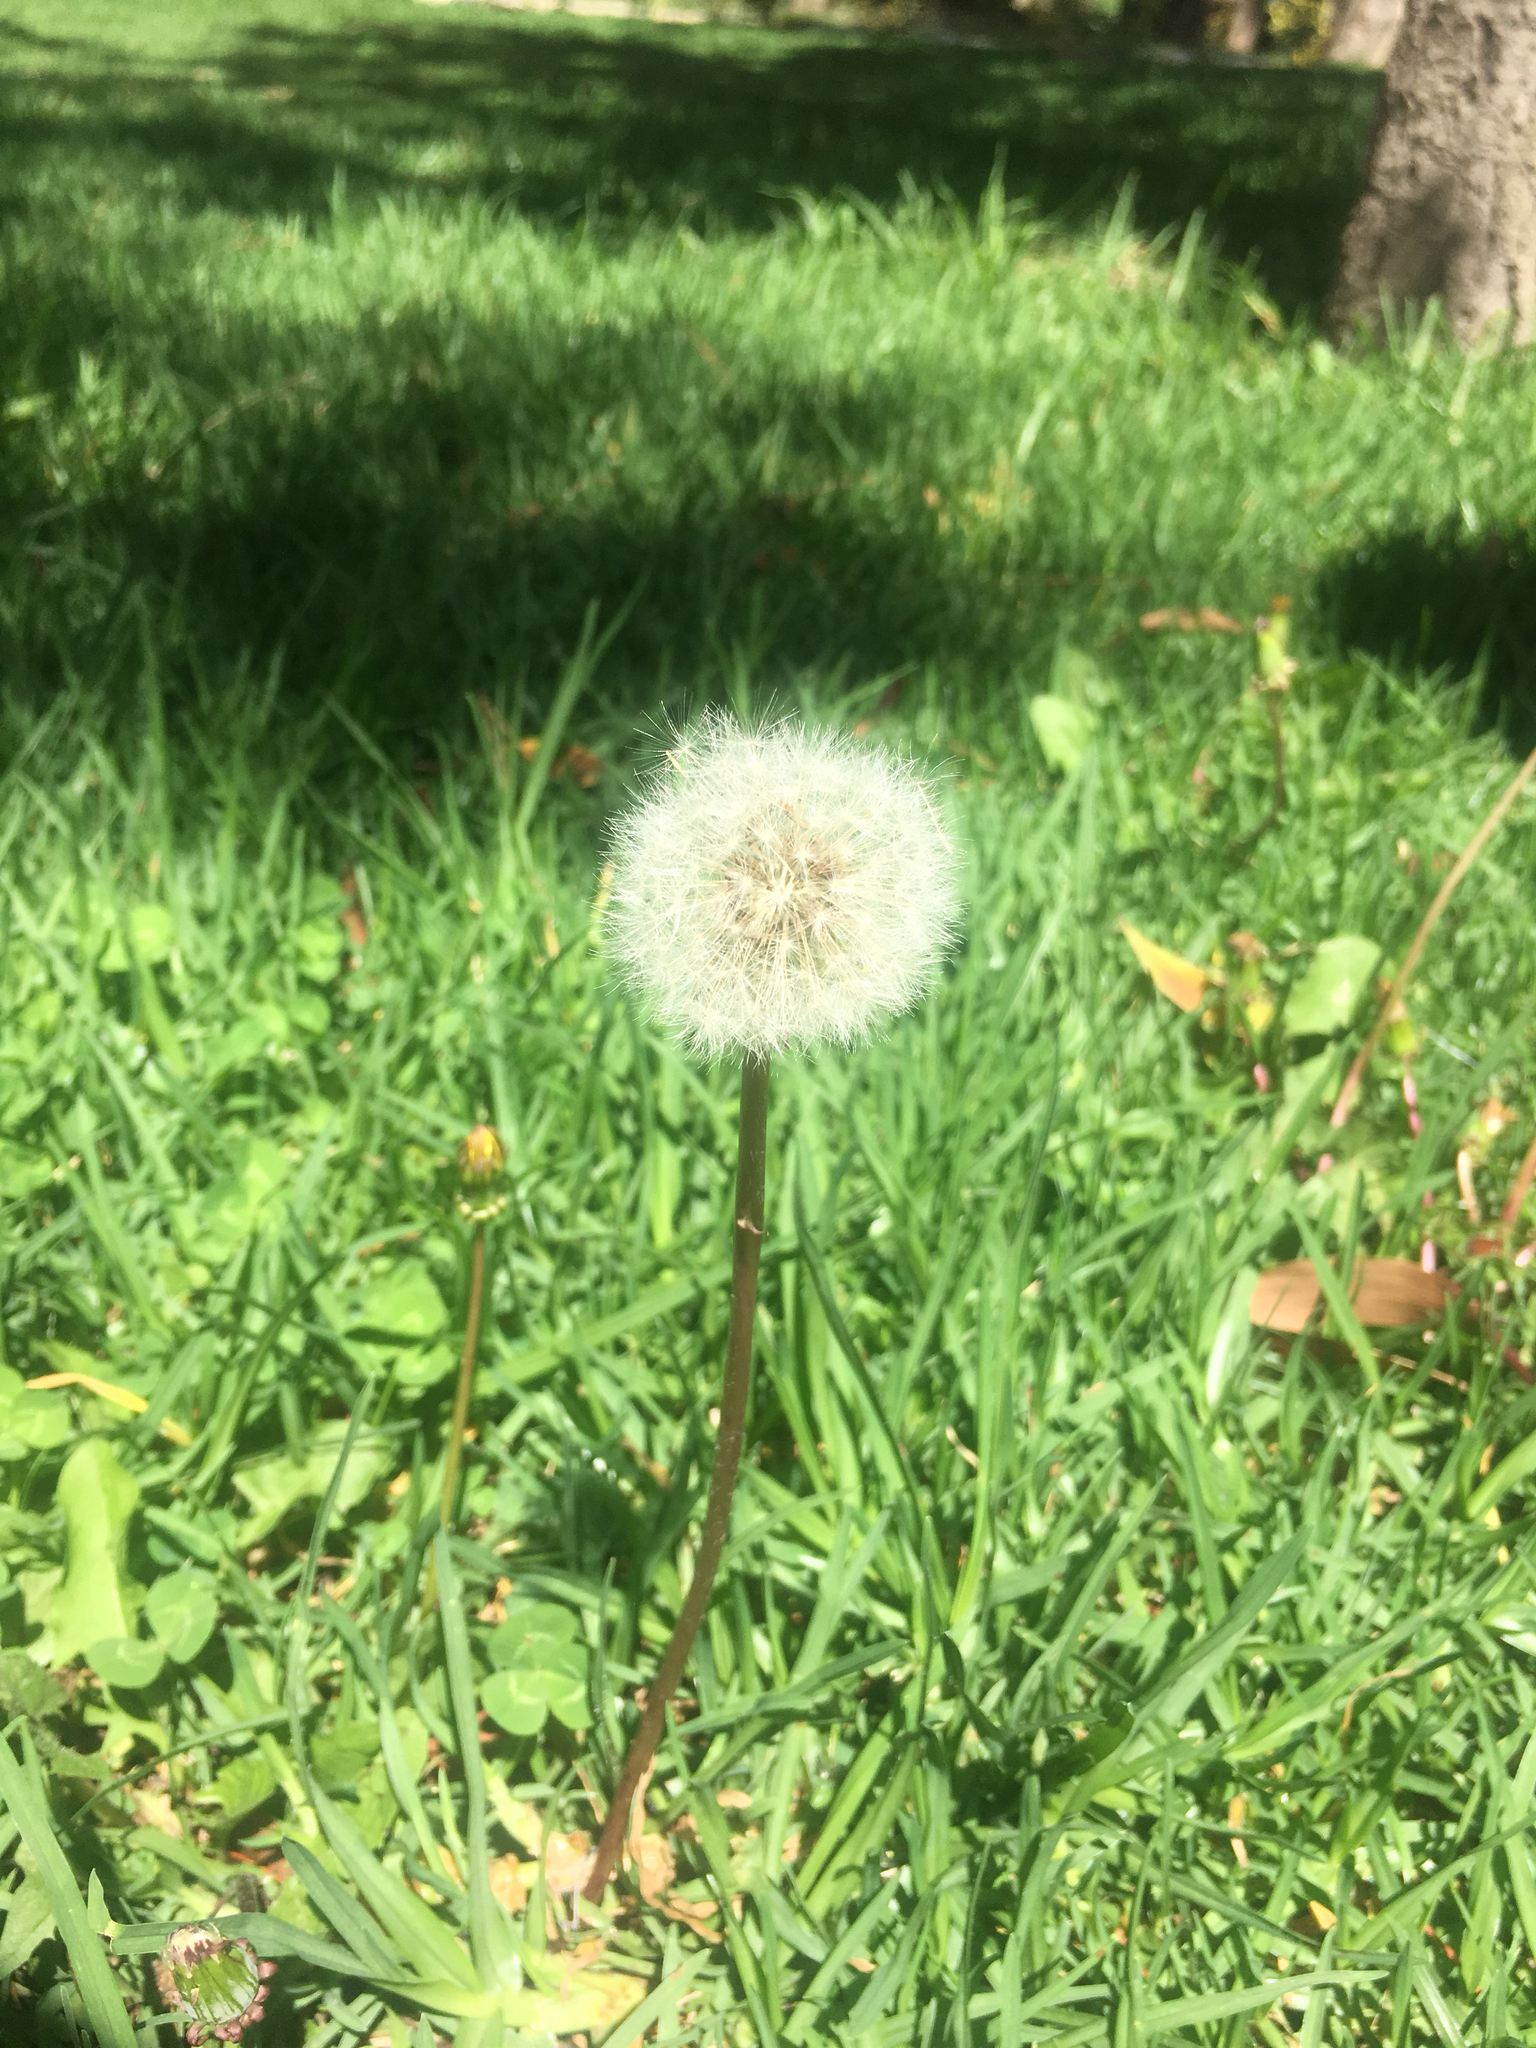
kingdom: Plantae
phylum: Tracheophyta
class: Magnoliopsida
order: Asterales
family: Asteraceae
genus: Taraxacum
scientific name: Taraxacum officinale
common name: Common dandelion
